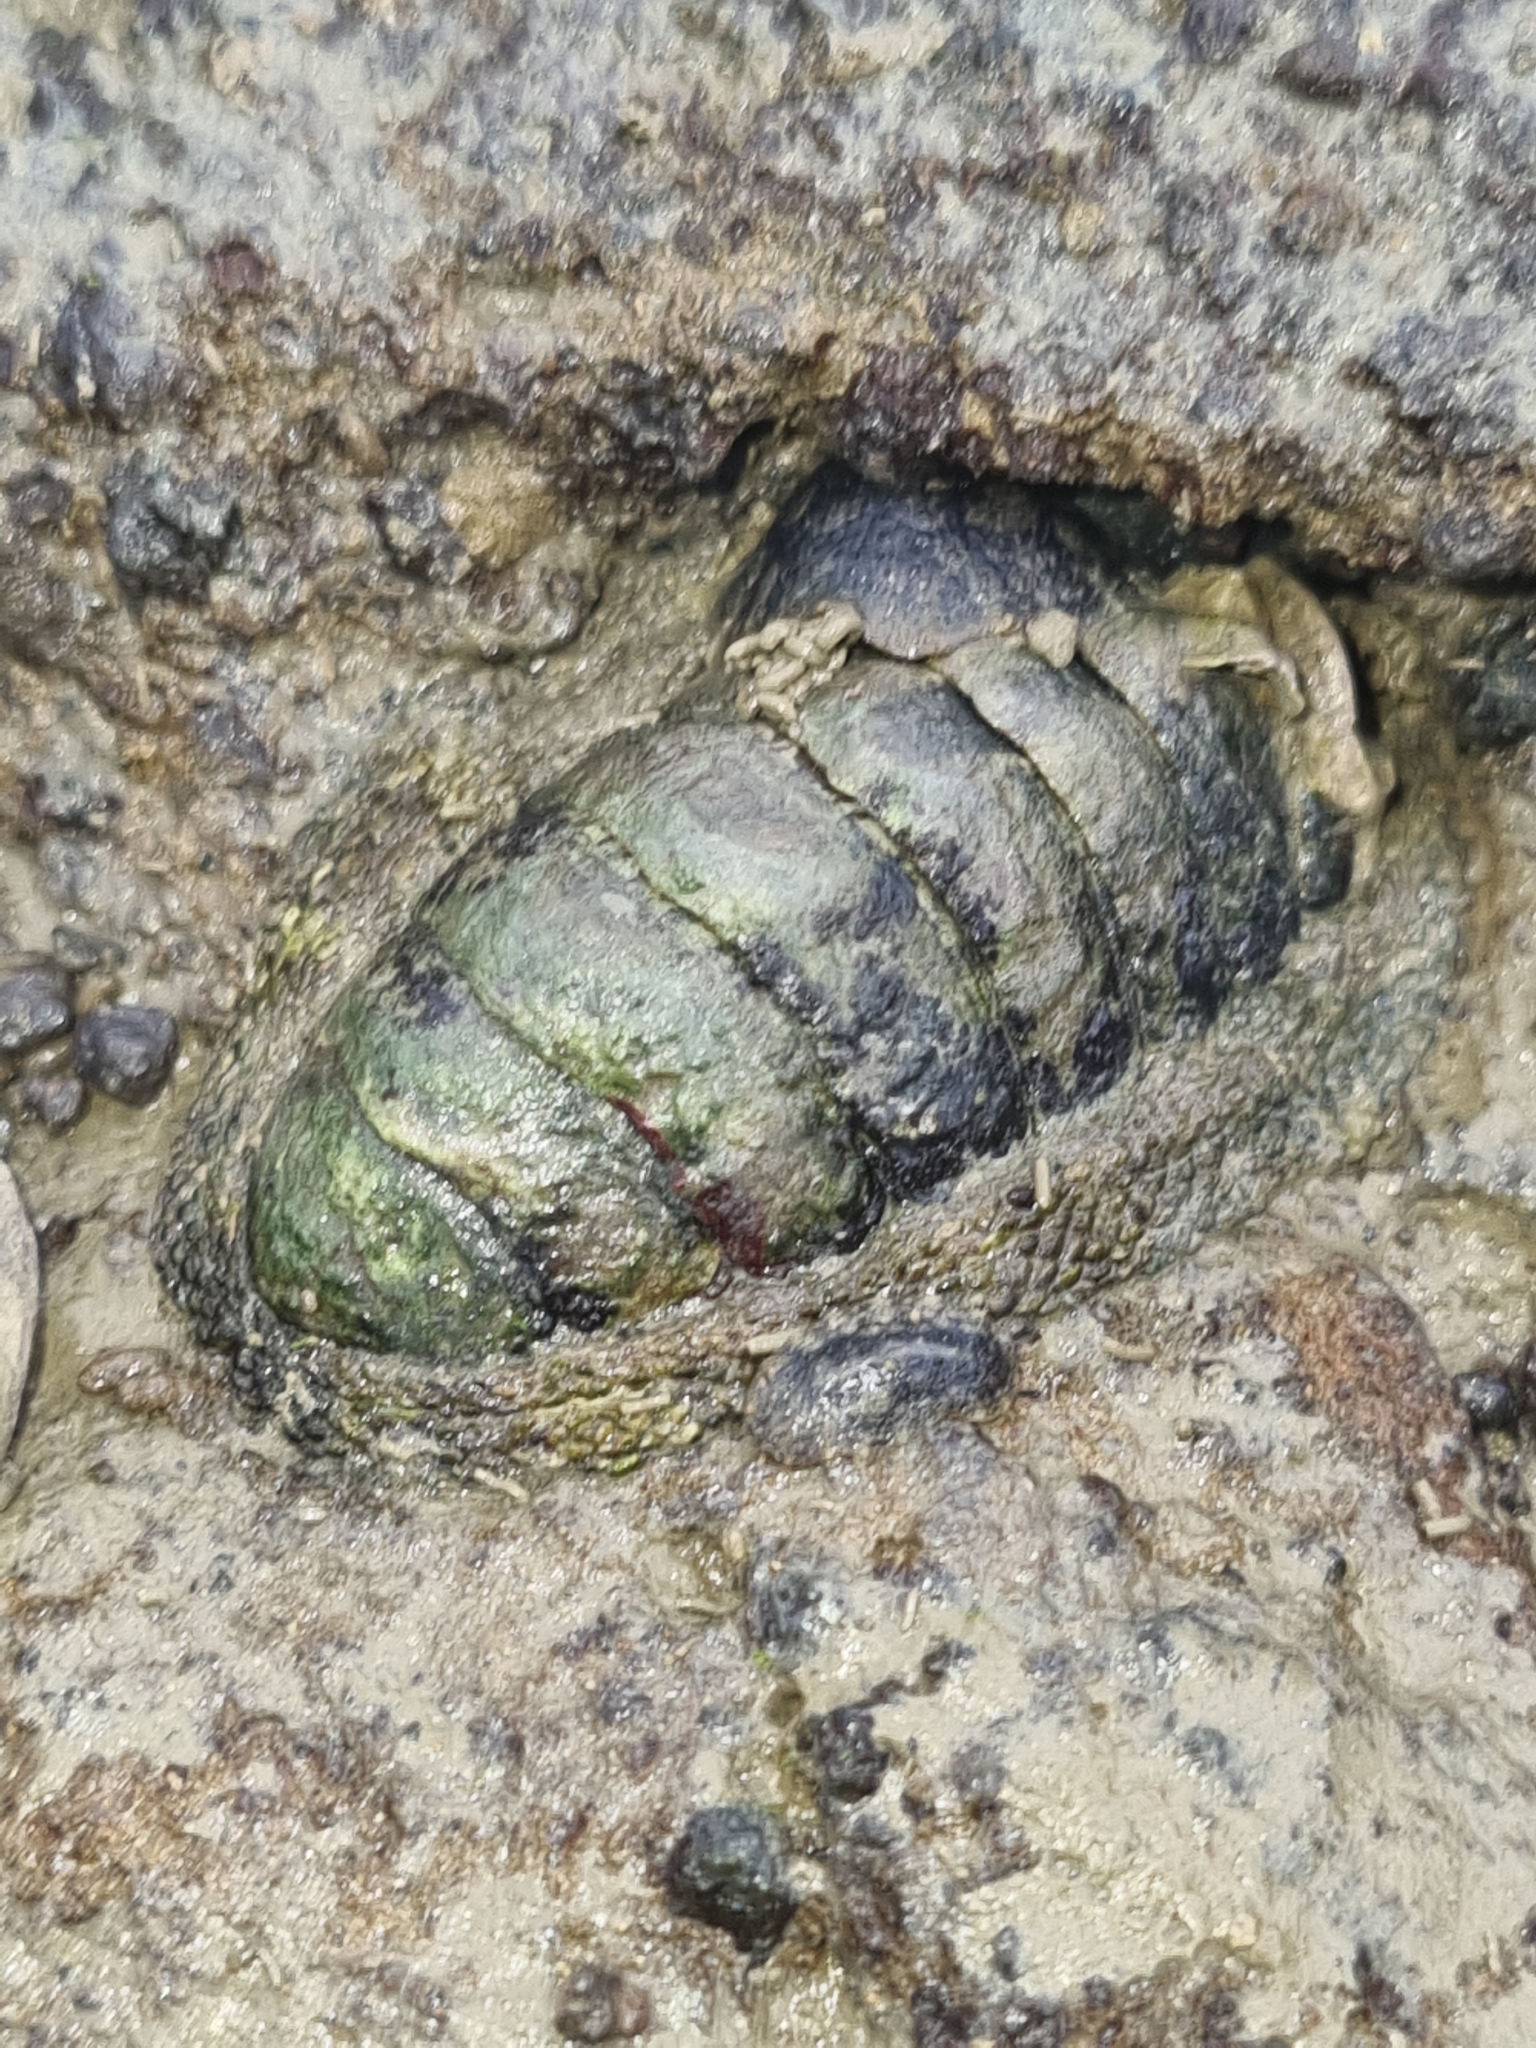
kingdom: Animalia
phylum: Mollusca
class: Polyplacophora
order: Chitonida
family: Chitonidae
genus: Sypharochiton
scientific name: Sypharochiton pelliserpentis
